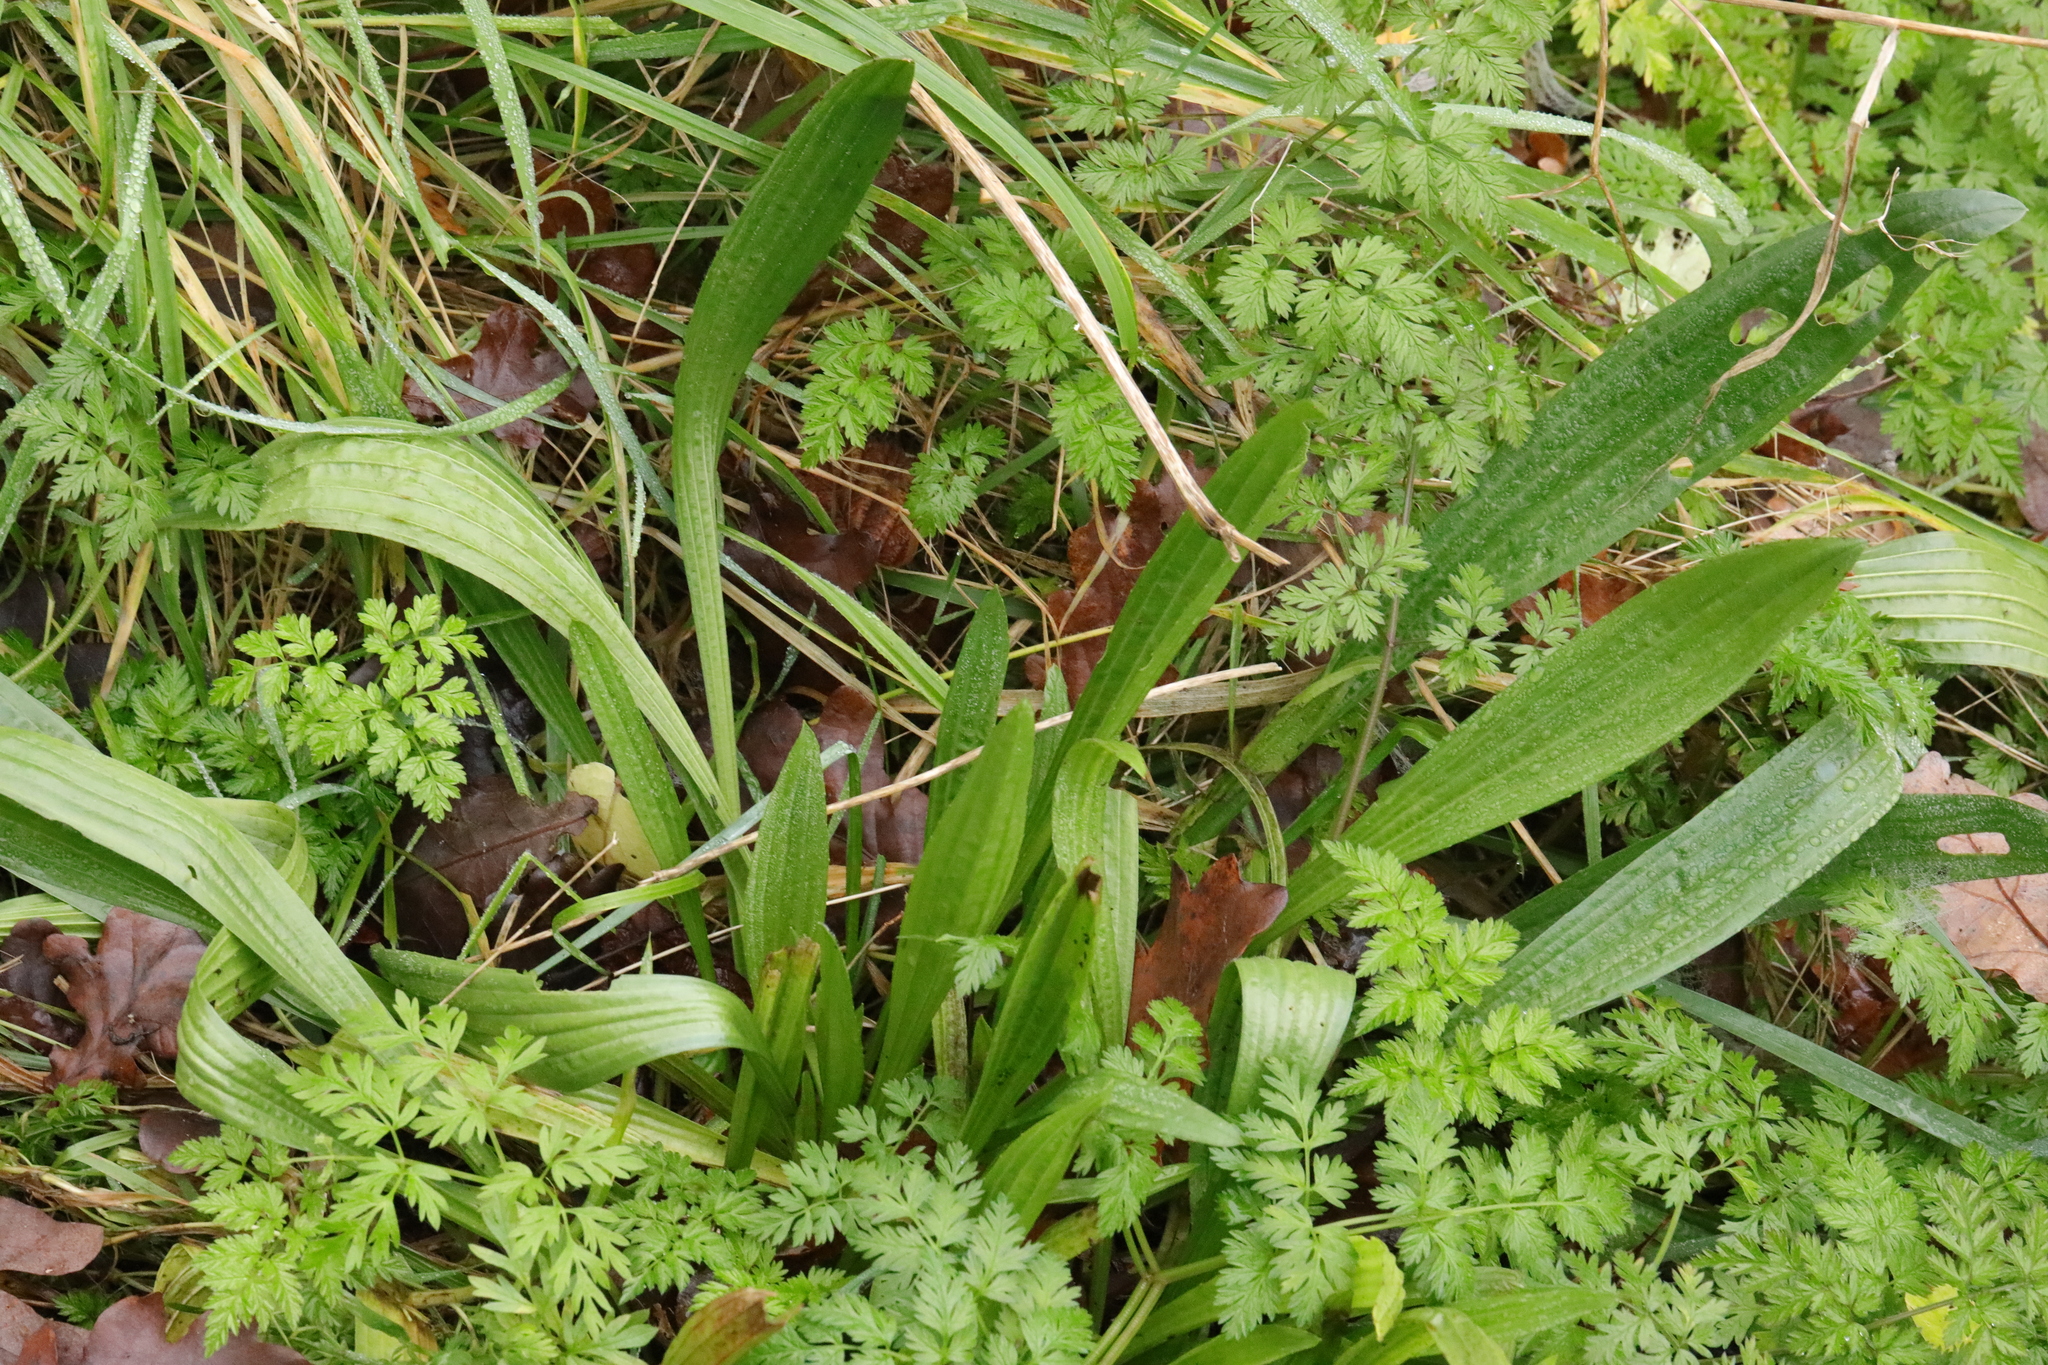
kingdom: Plantae
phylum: Tracheophyta
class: Magnoliopsida
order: Lamiales
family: Plantaginaceae
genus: Plantago
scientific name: Plantago lanceolata
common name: Ribwort plantain
